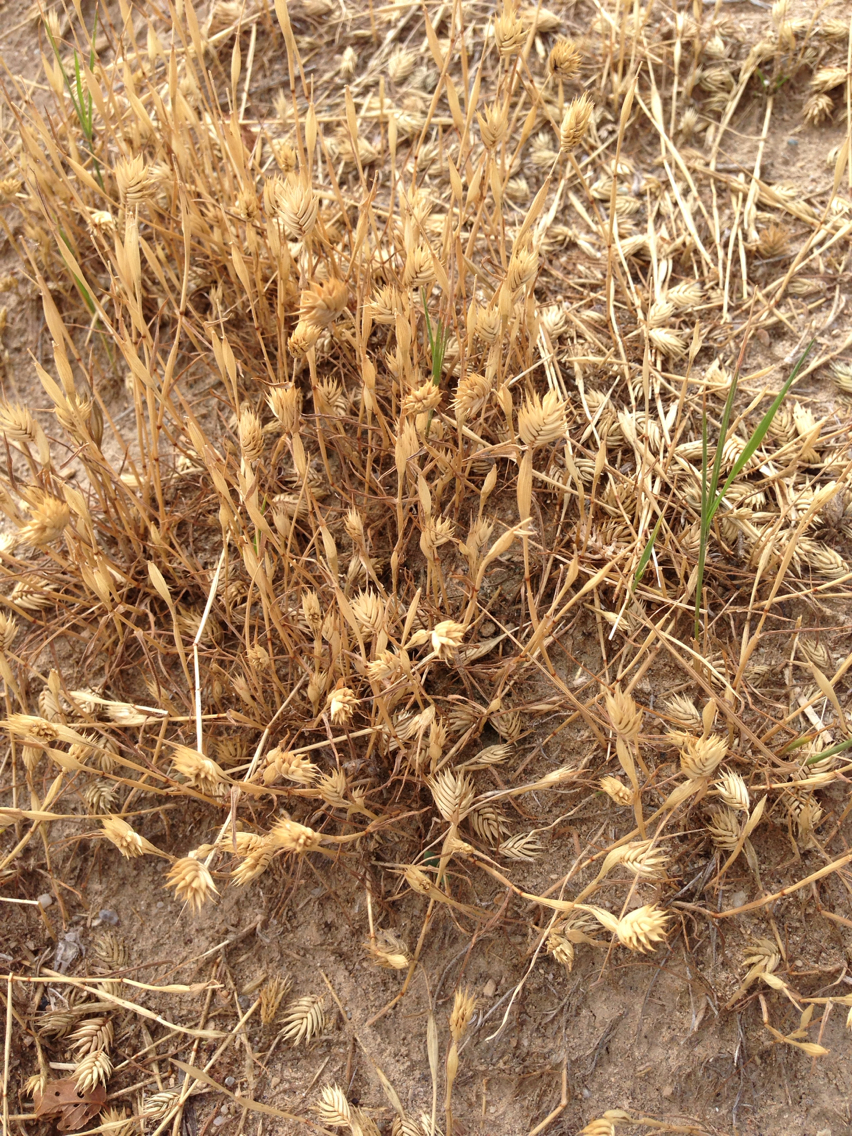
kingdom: Plantae
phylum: Tracheophyta
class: Liliopsida
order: Poales
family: Poaceae
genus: Eremopyrum
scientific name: Eremopyrum triticeum
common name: Annual wheatgrass
